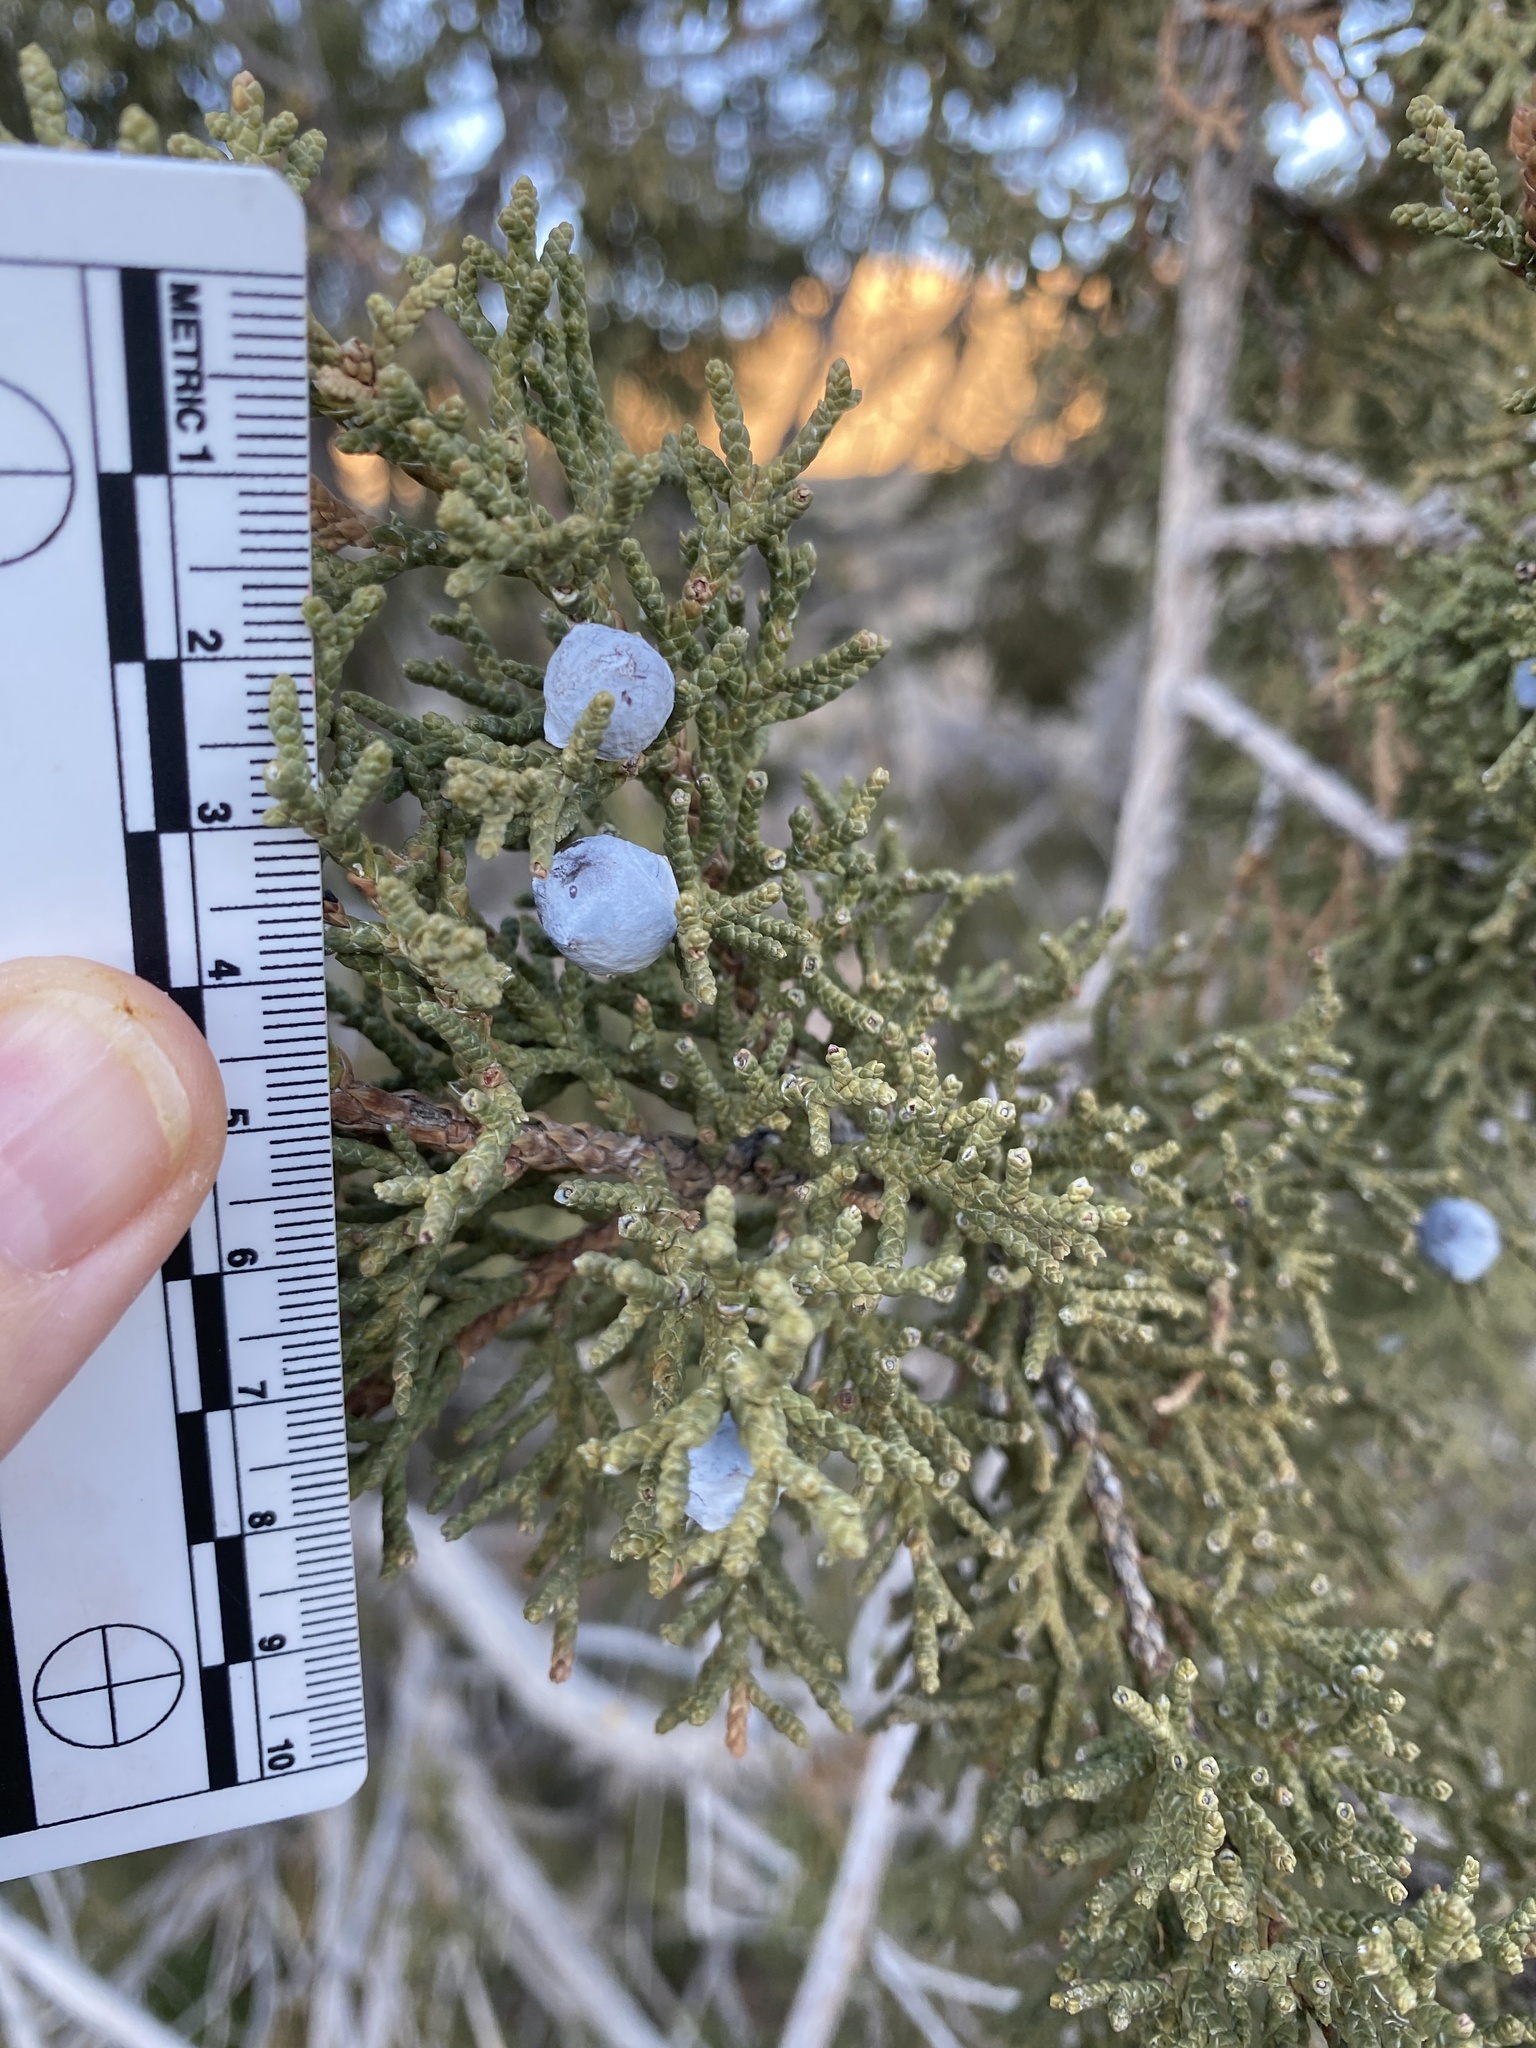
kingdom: Plantae
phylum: Tracheophyta
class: Pinopsida
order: Pinales
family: Cupressaceae
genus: Juniperus
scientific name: Juniperus osteosperma
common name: Utah juniper
